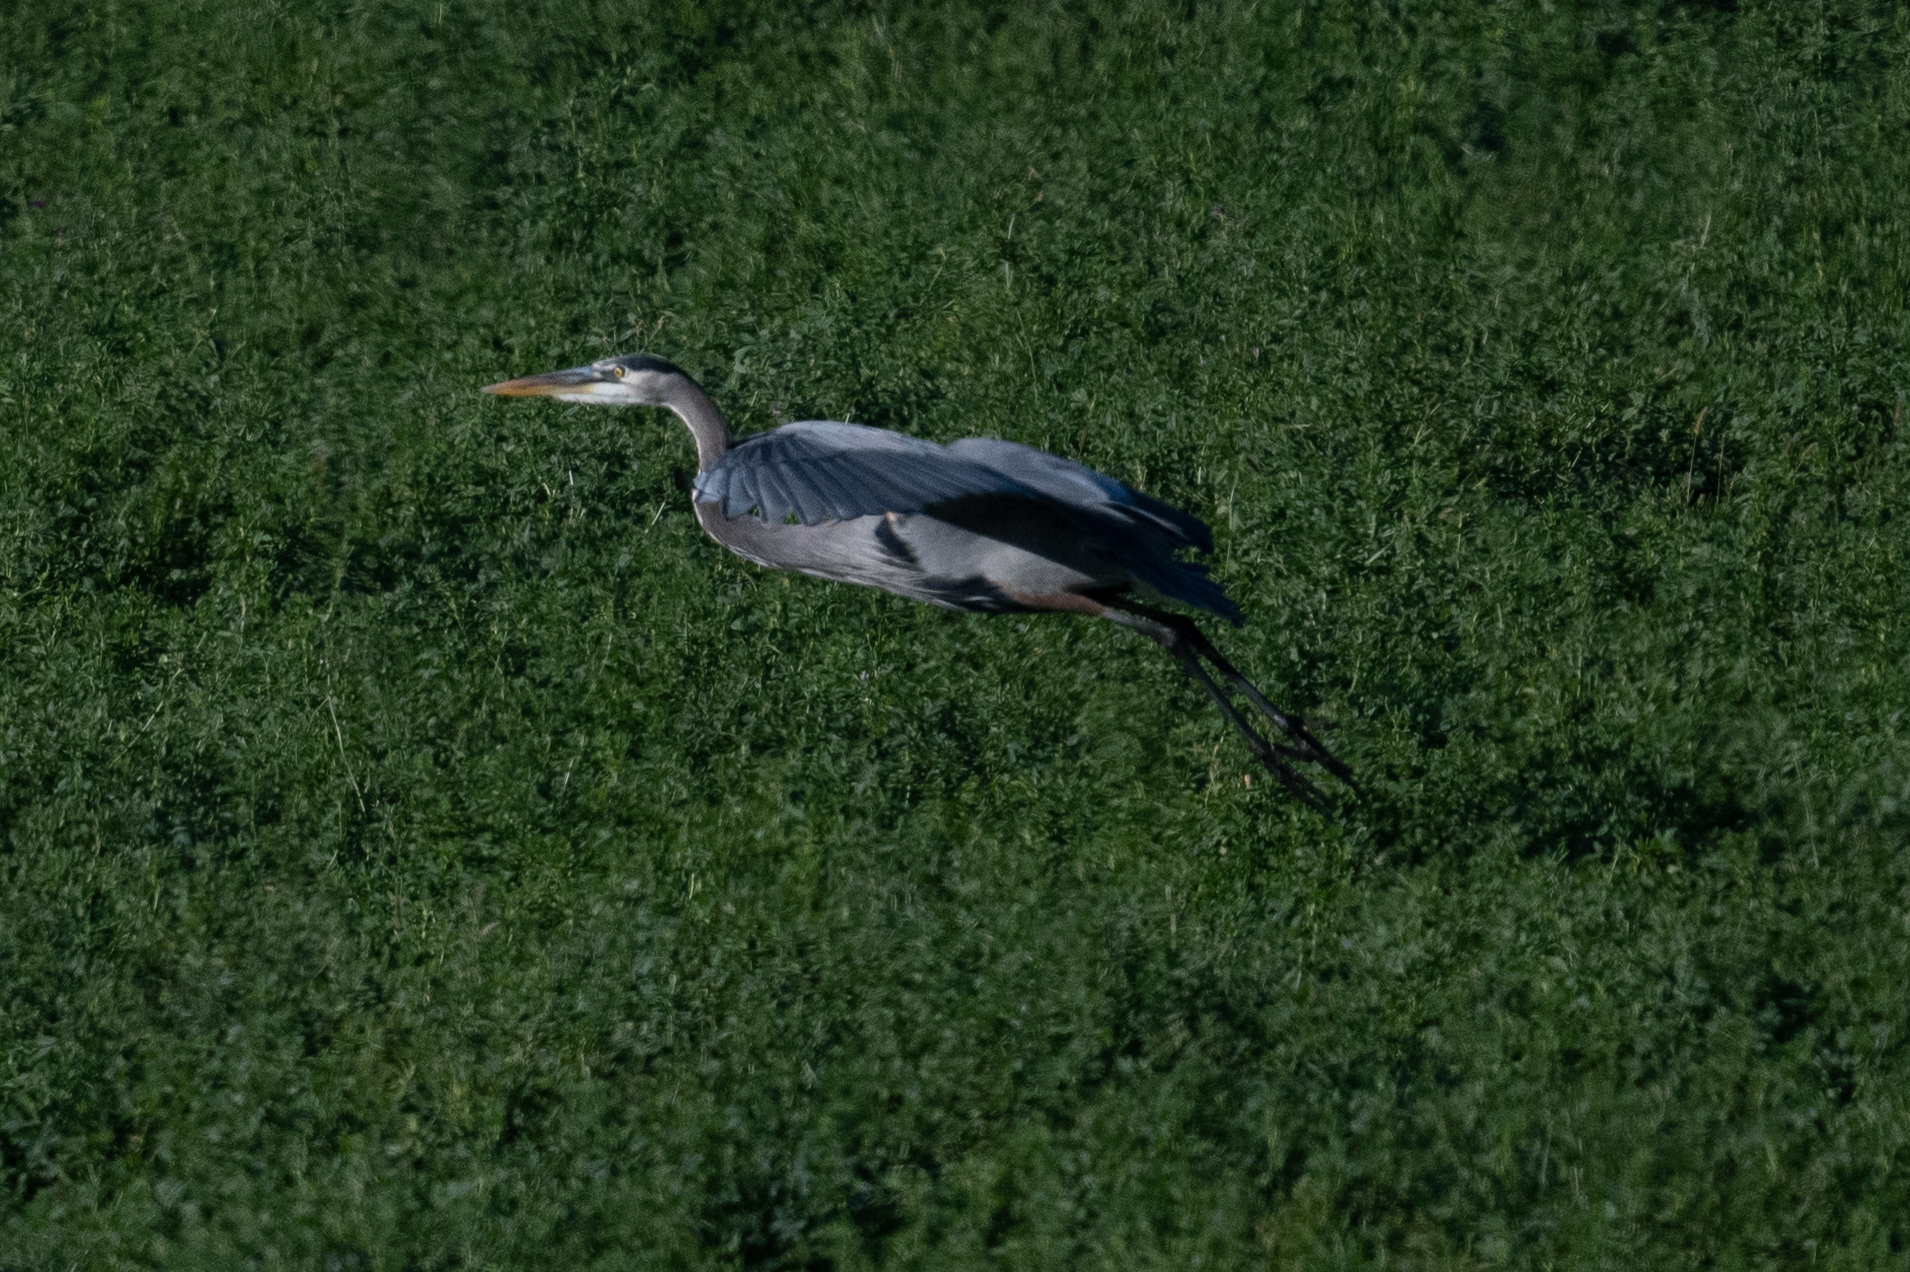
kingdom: Animalia
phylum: Chordata
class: Aves
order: Pelecaniformes
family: Ardeidae
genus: Ardea
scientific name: Ardea herodias
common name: Great blue heron
